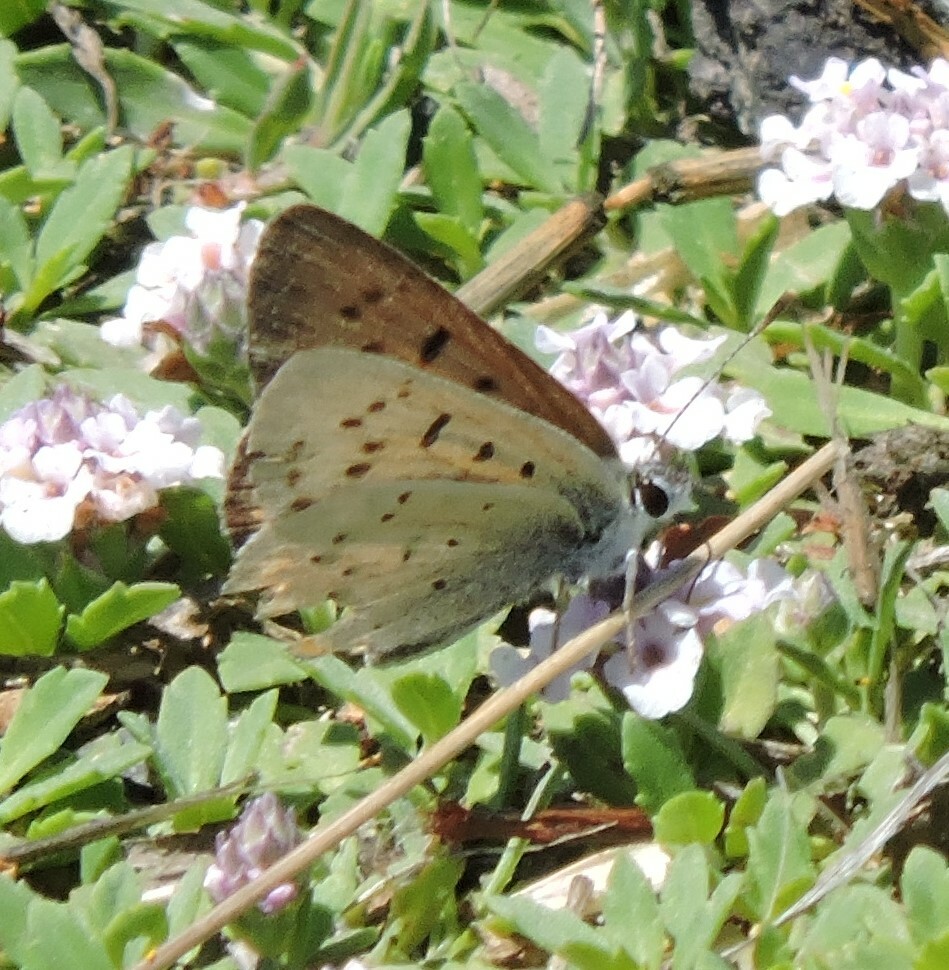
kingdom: Animalia
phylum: Arthropoda
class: Insecta
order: Lepidoptera
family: Lycaenidae
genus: Tharsalea
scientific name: Tharsalea helloides
